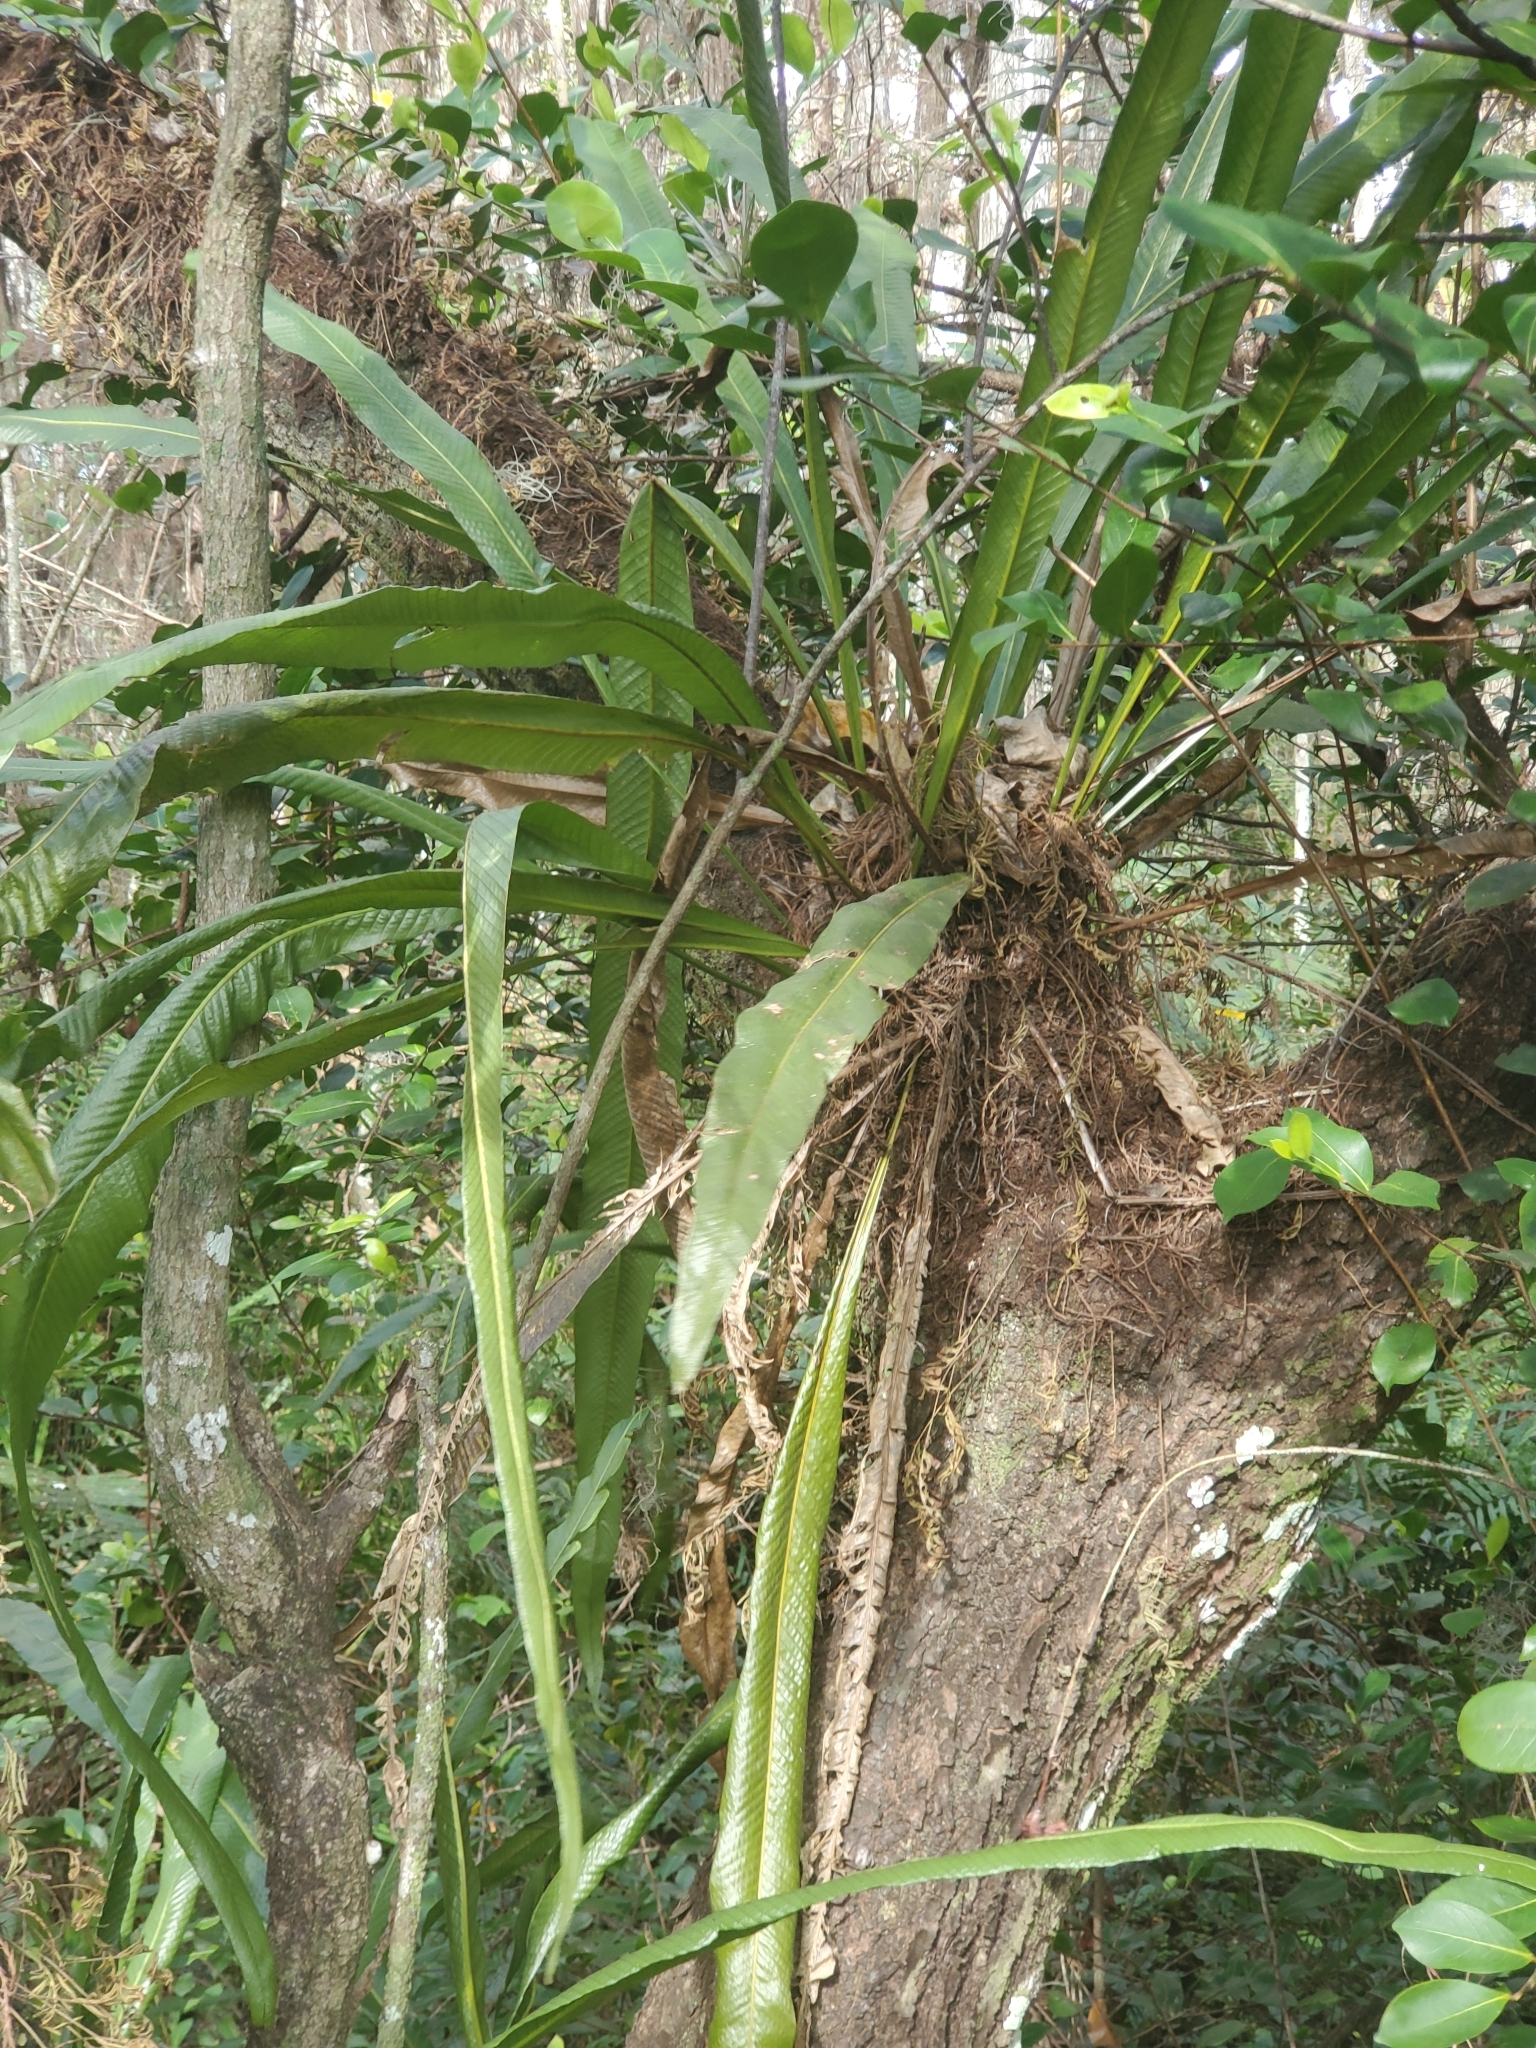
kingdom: Plantae
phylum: Tracheophyta
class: Polypodiopsida
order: Polypodiales
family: Polypodiaceae
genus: Campyloneurum
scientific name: Campyloneurum phyllitidis
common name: Cow-tongue fern
